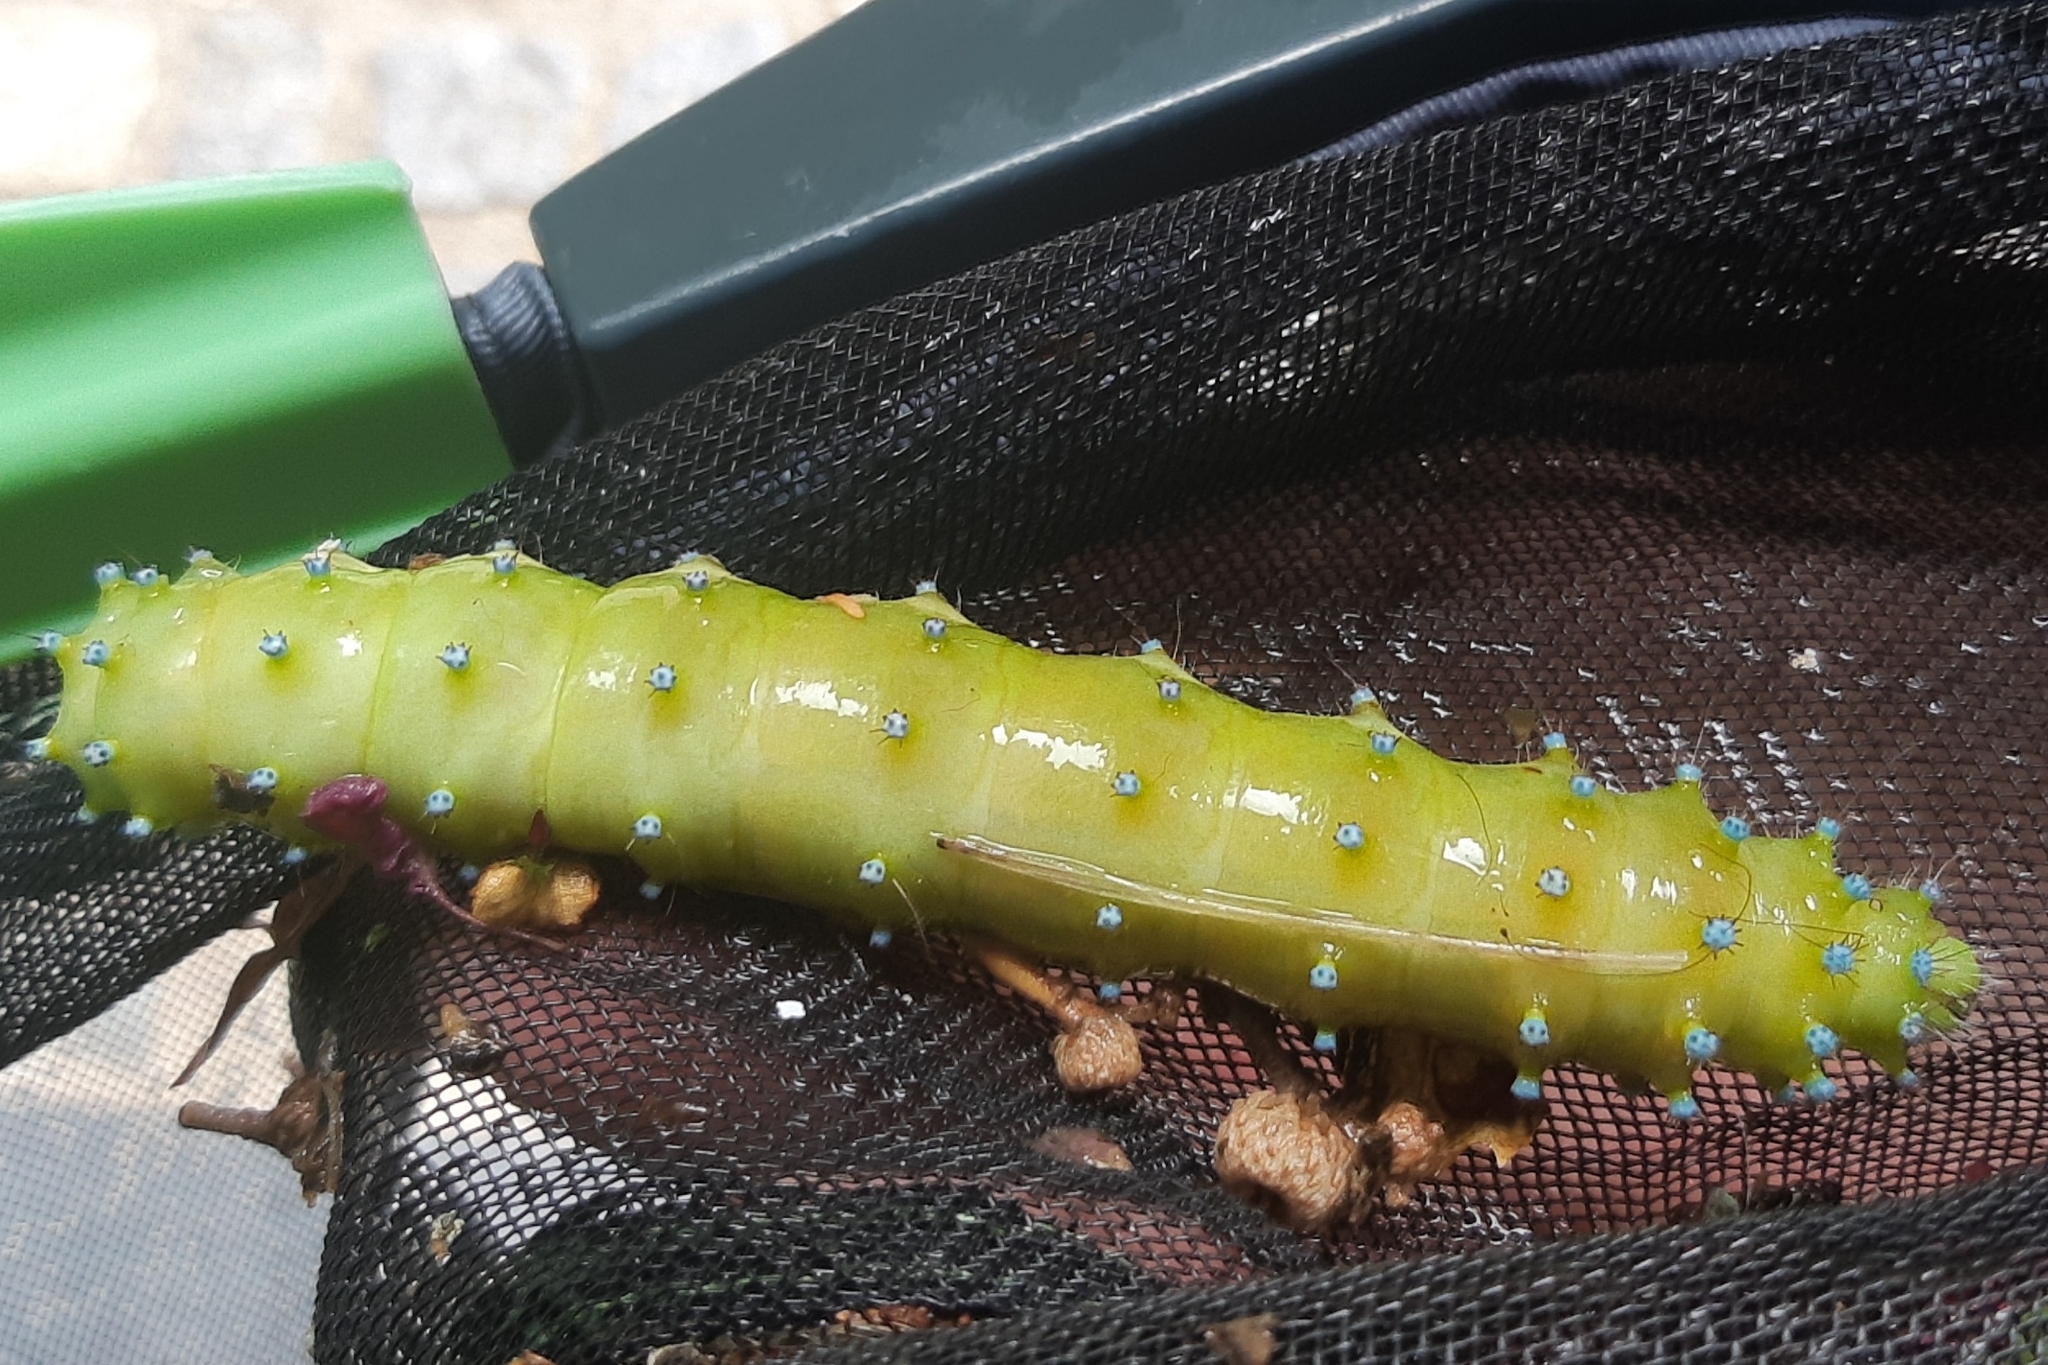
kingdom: Animalia
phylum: Arthropoda
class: Insecta
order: Lepidoptera
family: Saturniidae
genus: Saturnia
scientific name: Saturnia pyri
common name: Great peacock moth
